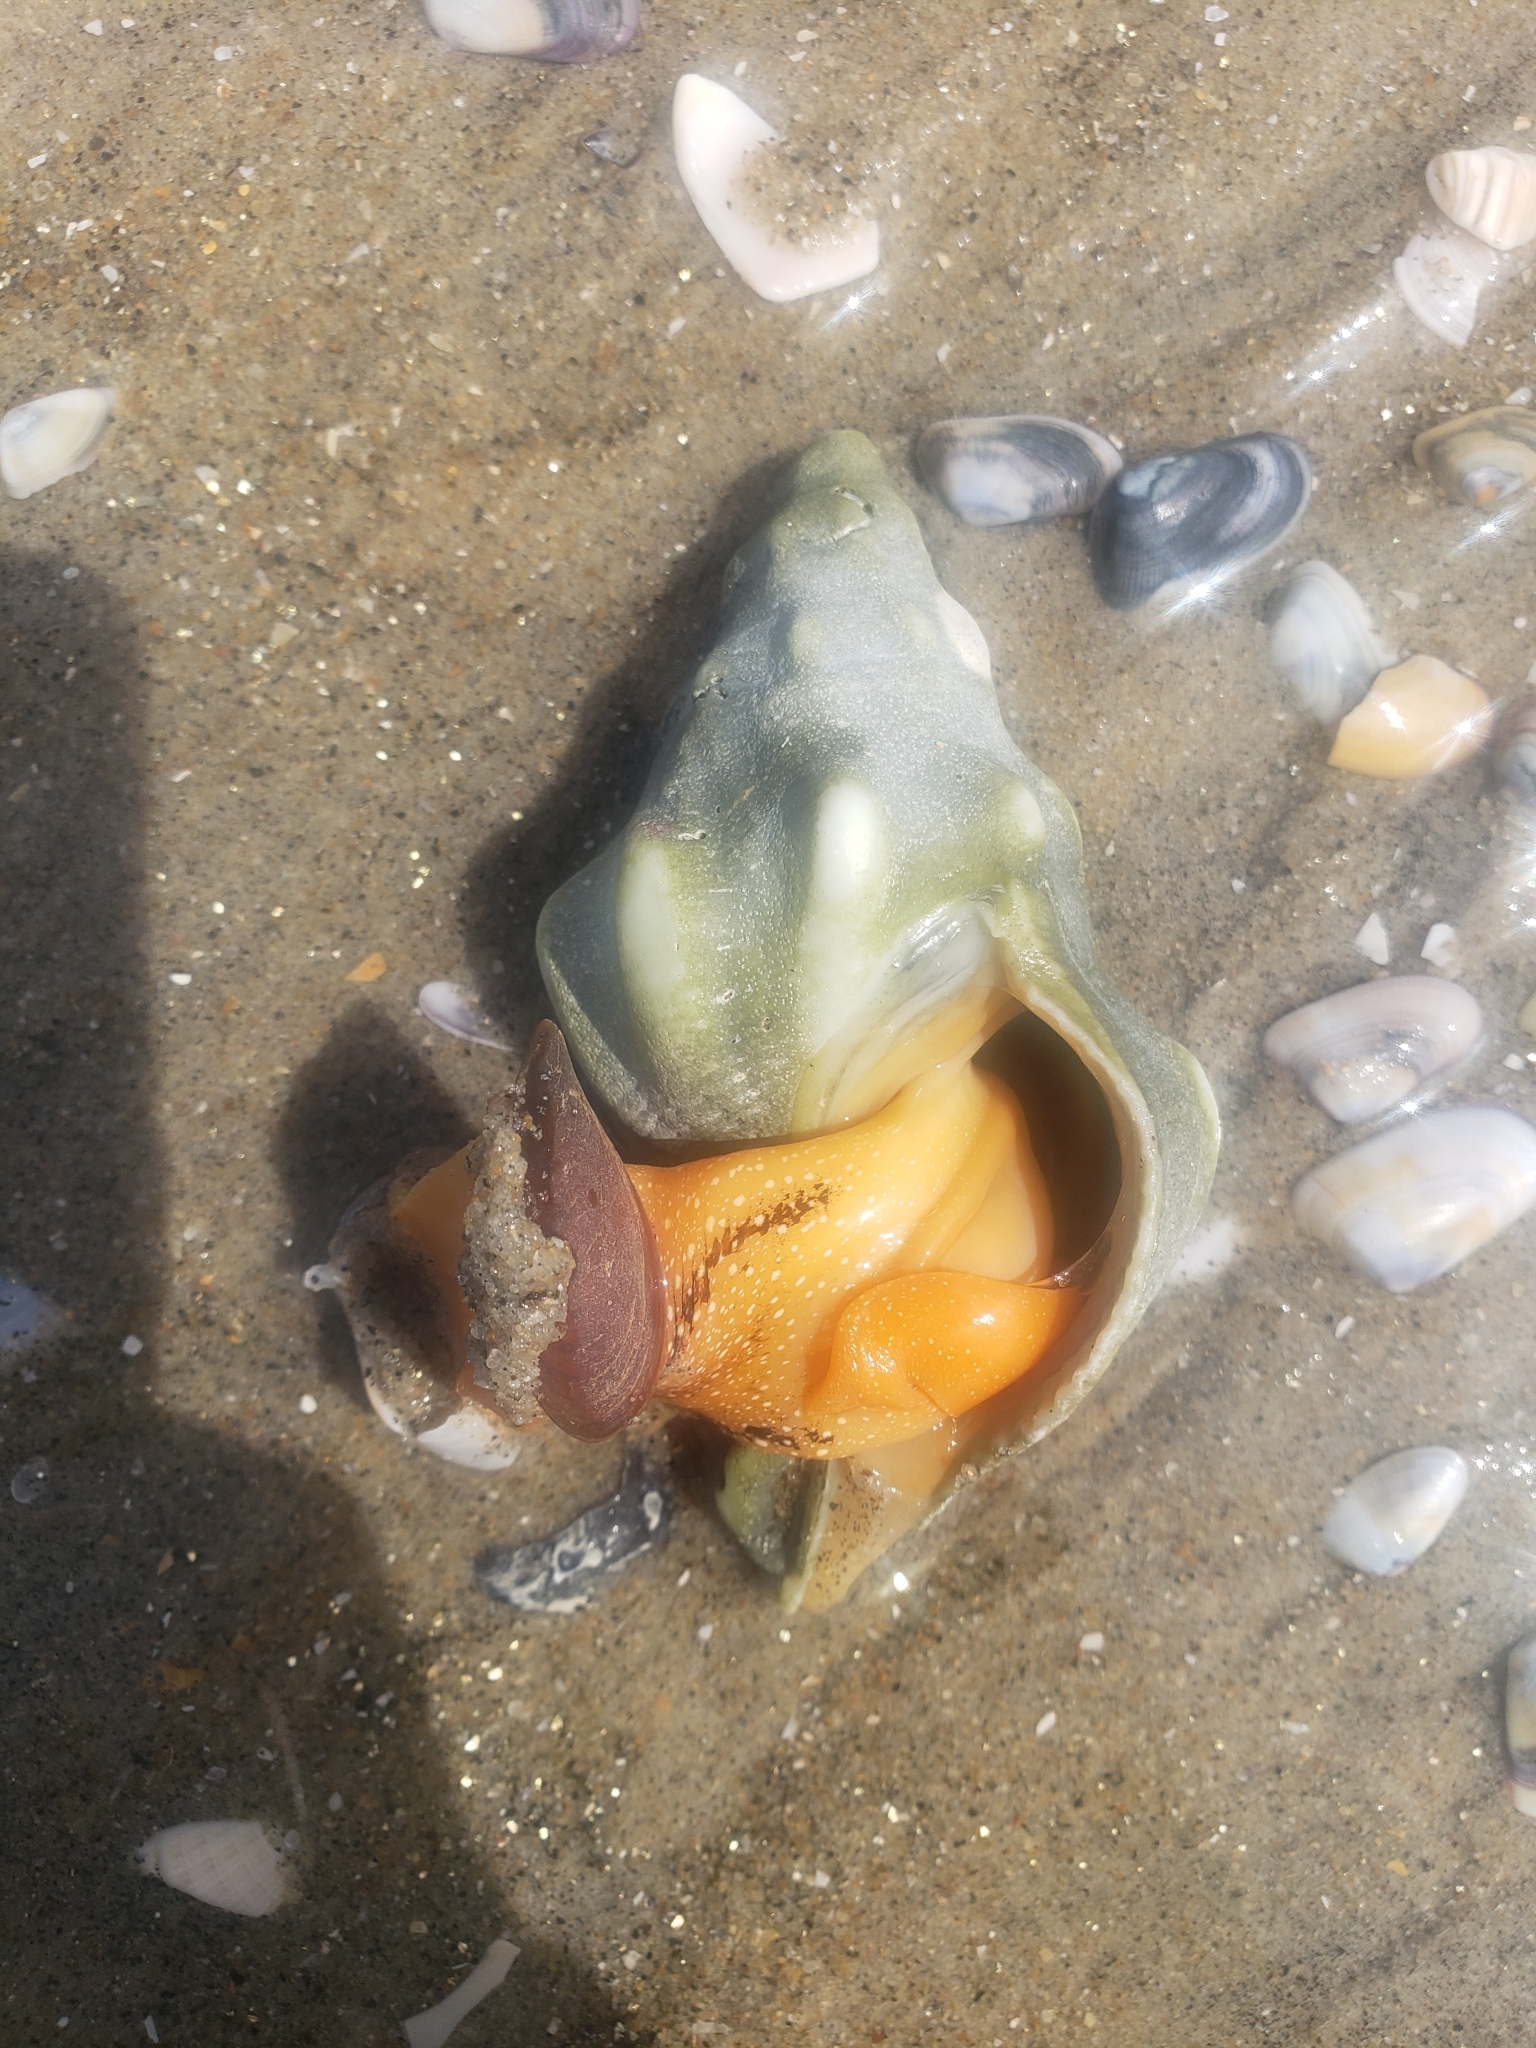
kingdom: Animalia
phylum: Mollusca
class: Gastropoda
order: Neogastropoda
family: Austrosiphonidae
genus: Kelletia
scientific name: Kelletia kelletii
